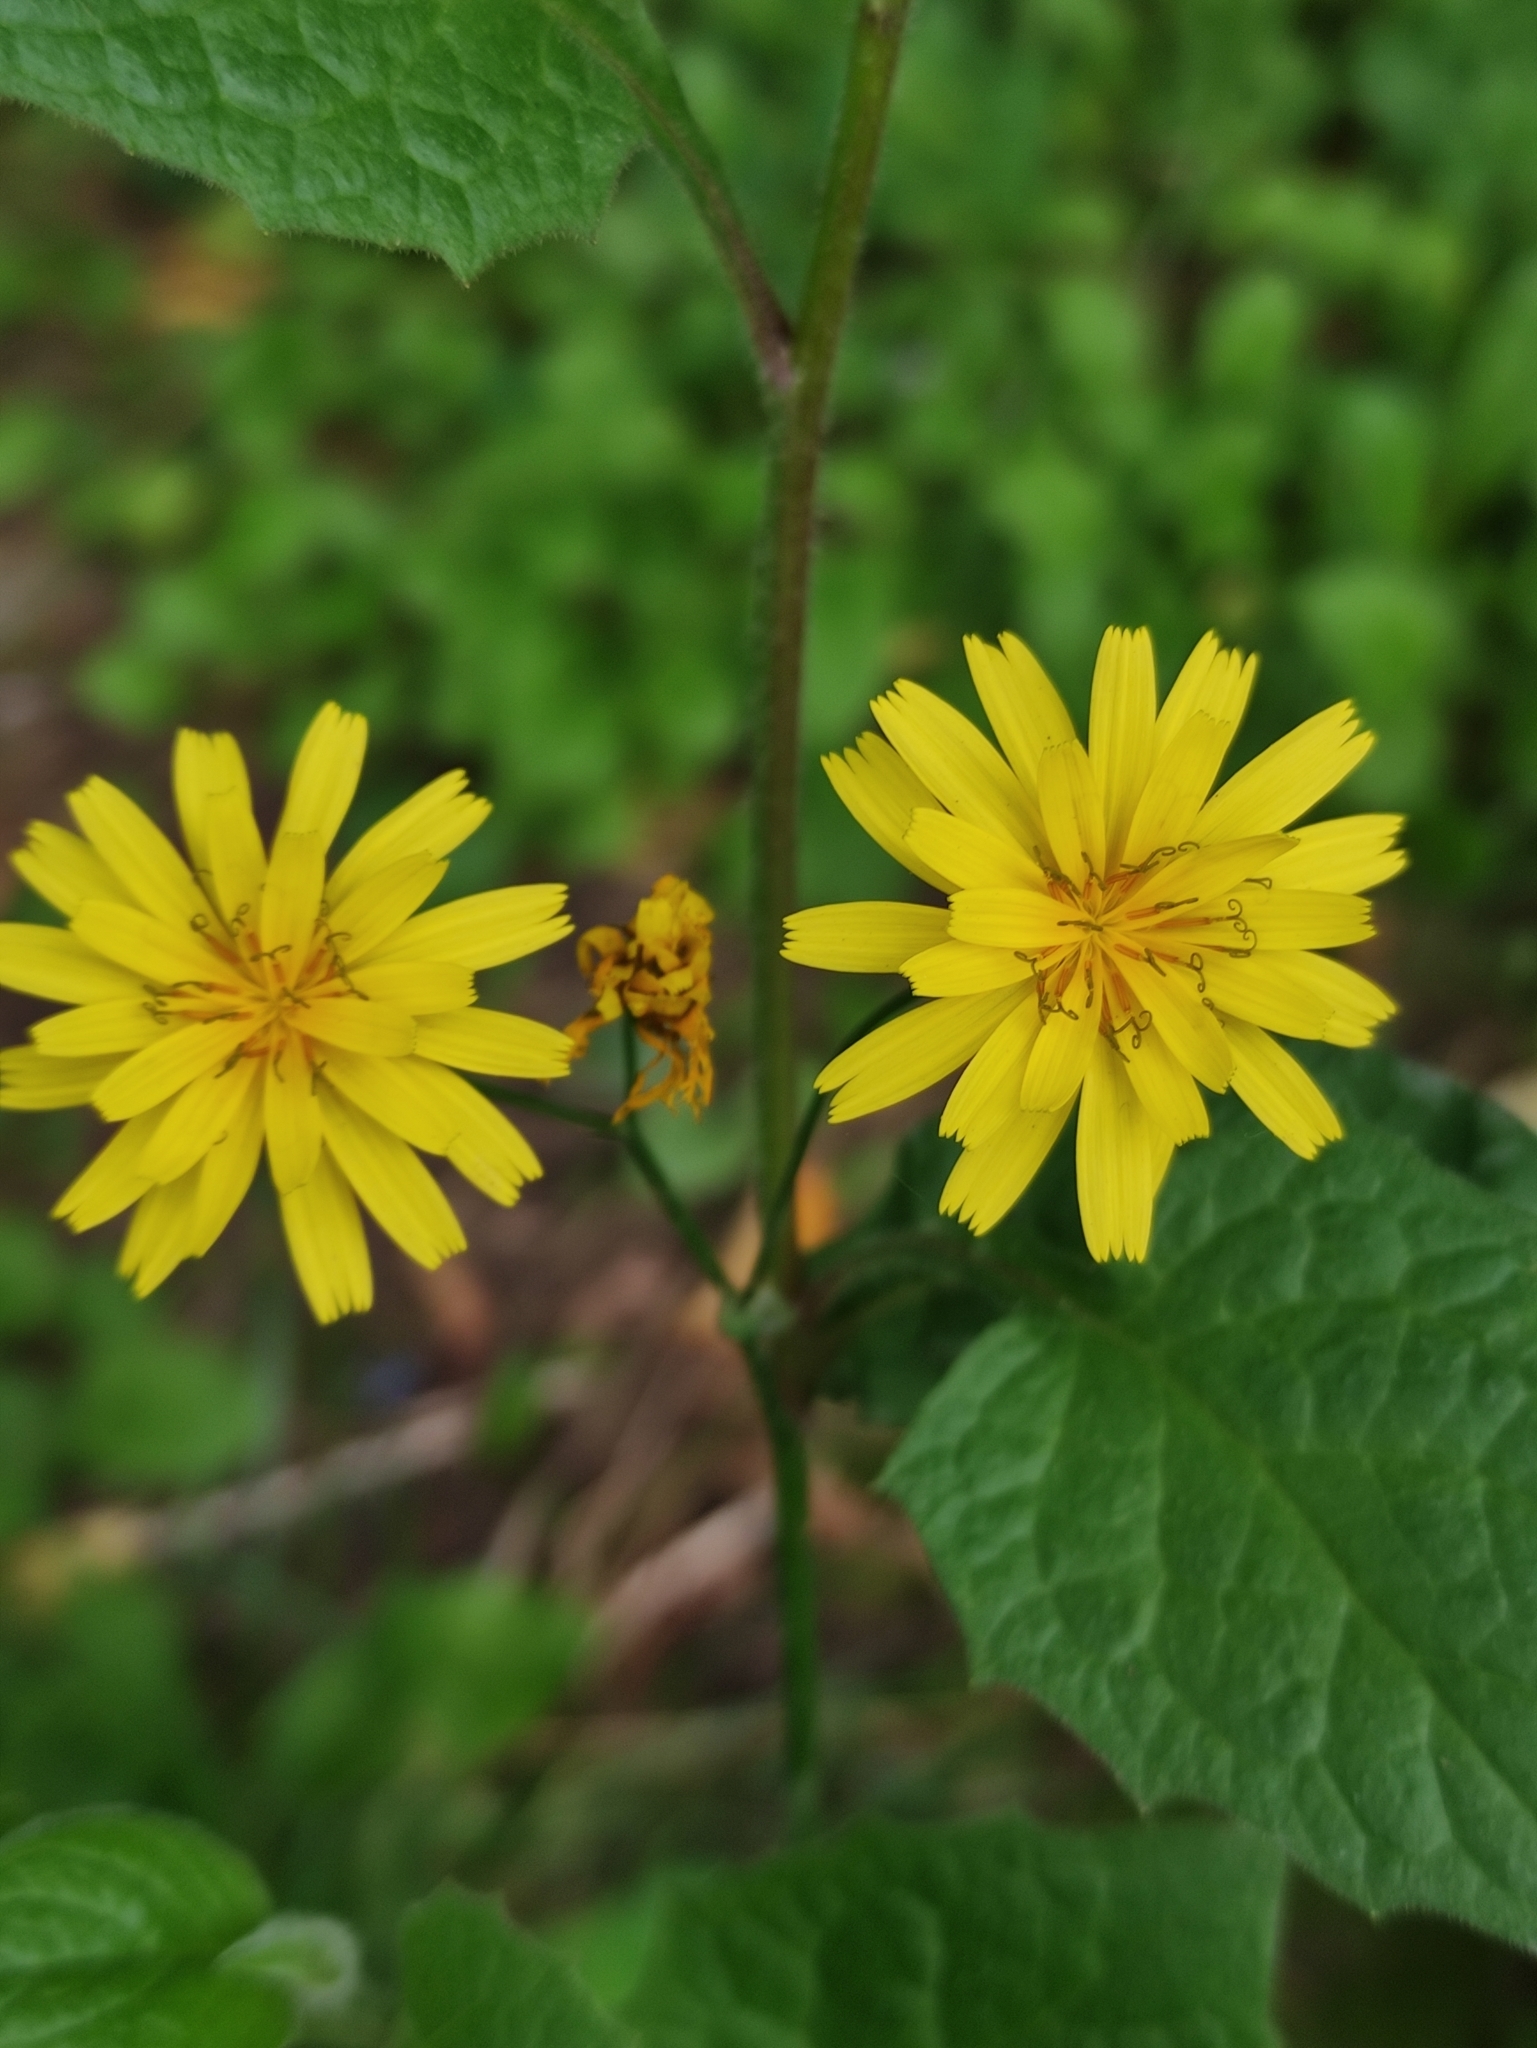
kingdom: Plantae
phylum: Tracheophyta
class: Magnoliopsida
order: Asterales
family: Asteraceae
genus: Lapsana
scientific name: Lapsana communis
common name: Nipplewort
